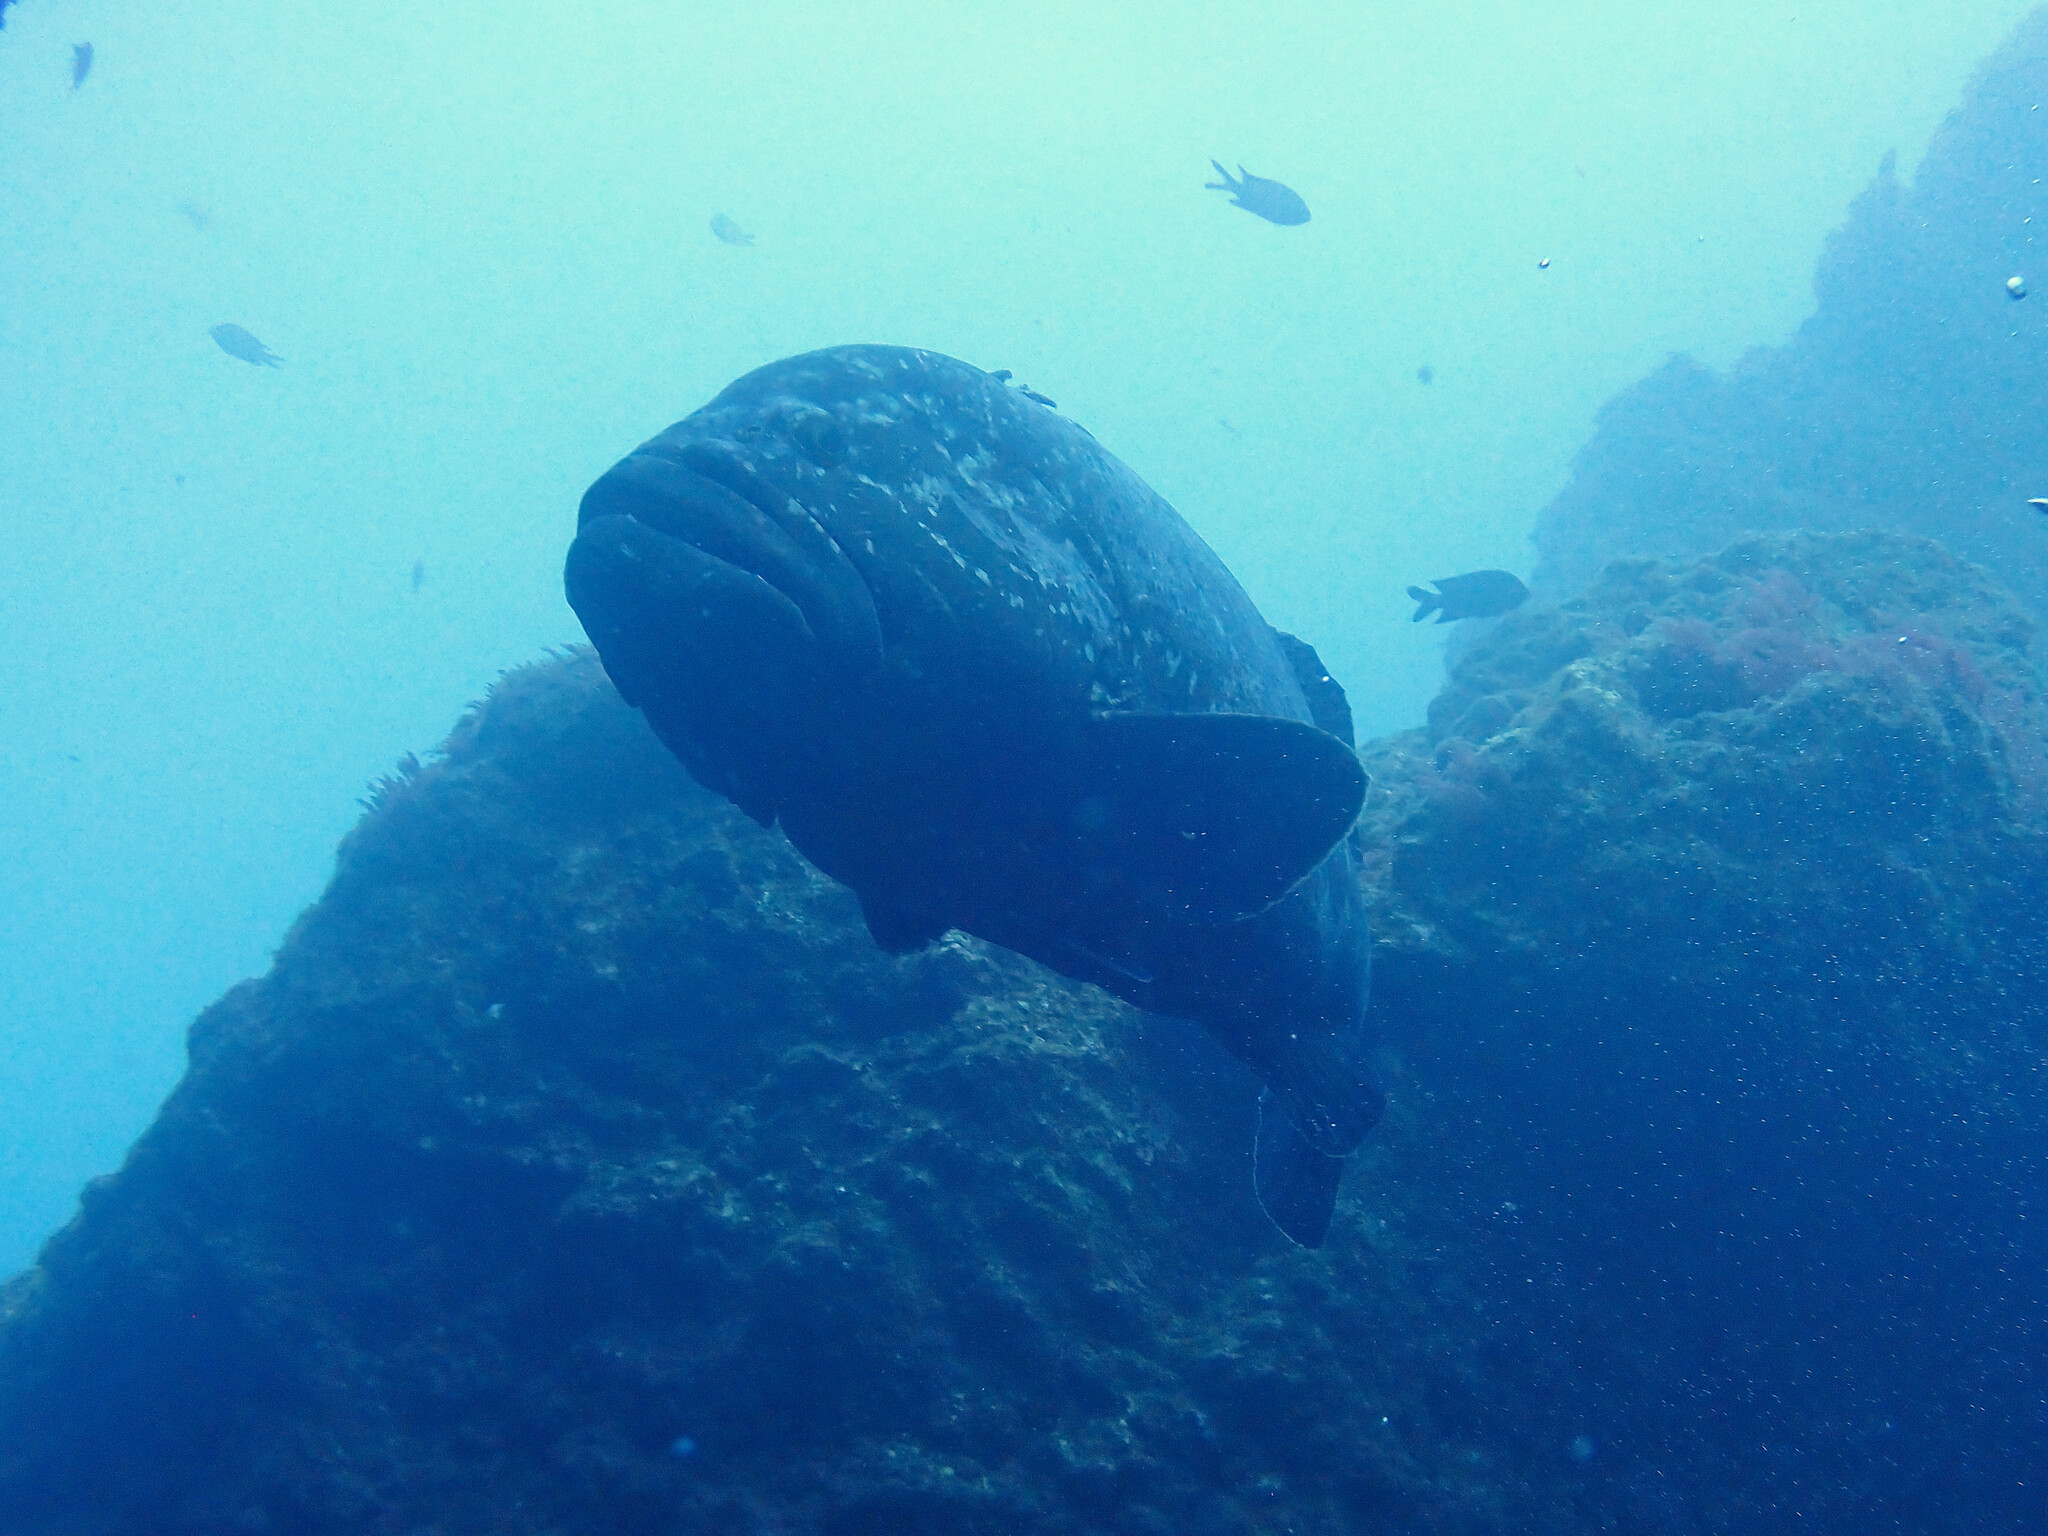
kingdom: Animalia
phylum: Chordata
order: Perciformes
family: Serranidae
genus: Epinephelus
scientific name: Epinephelus marginatus
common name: Dusky grouper
